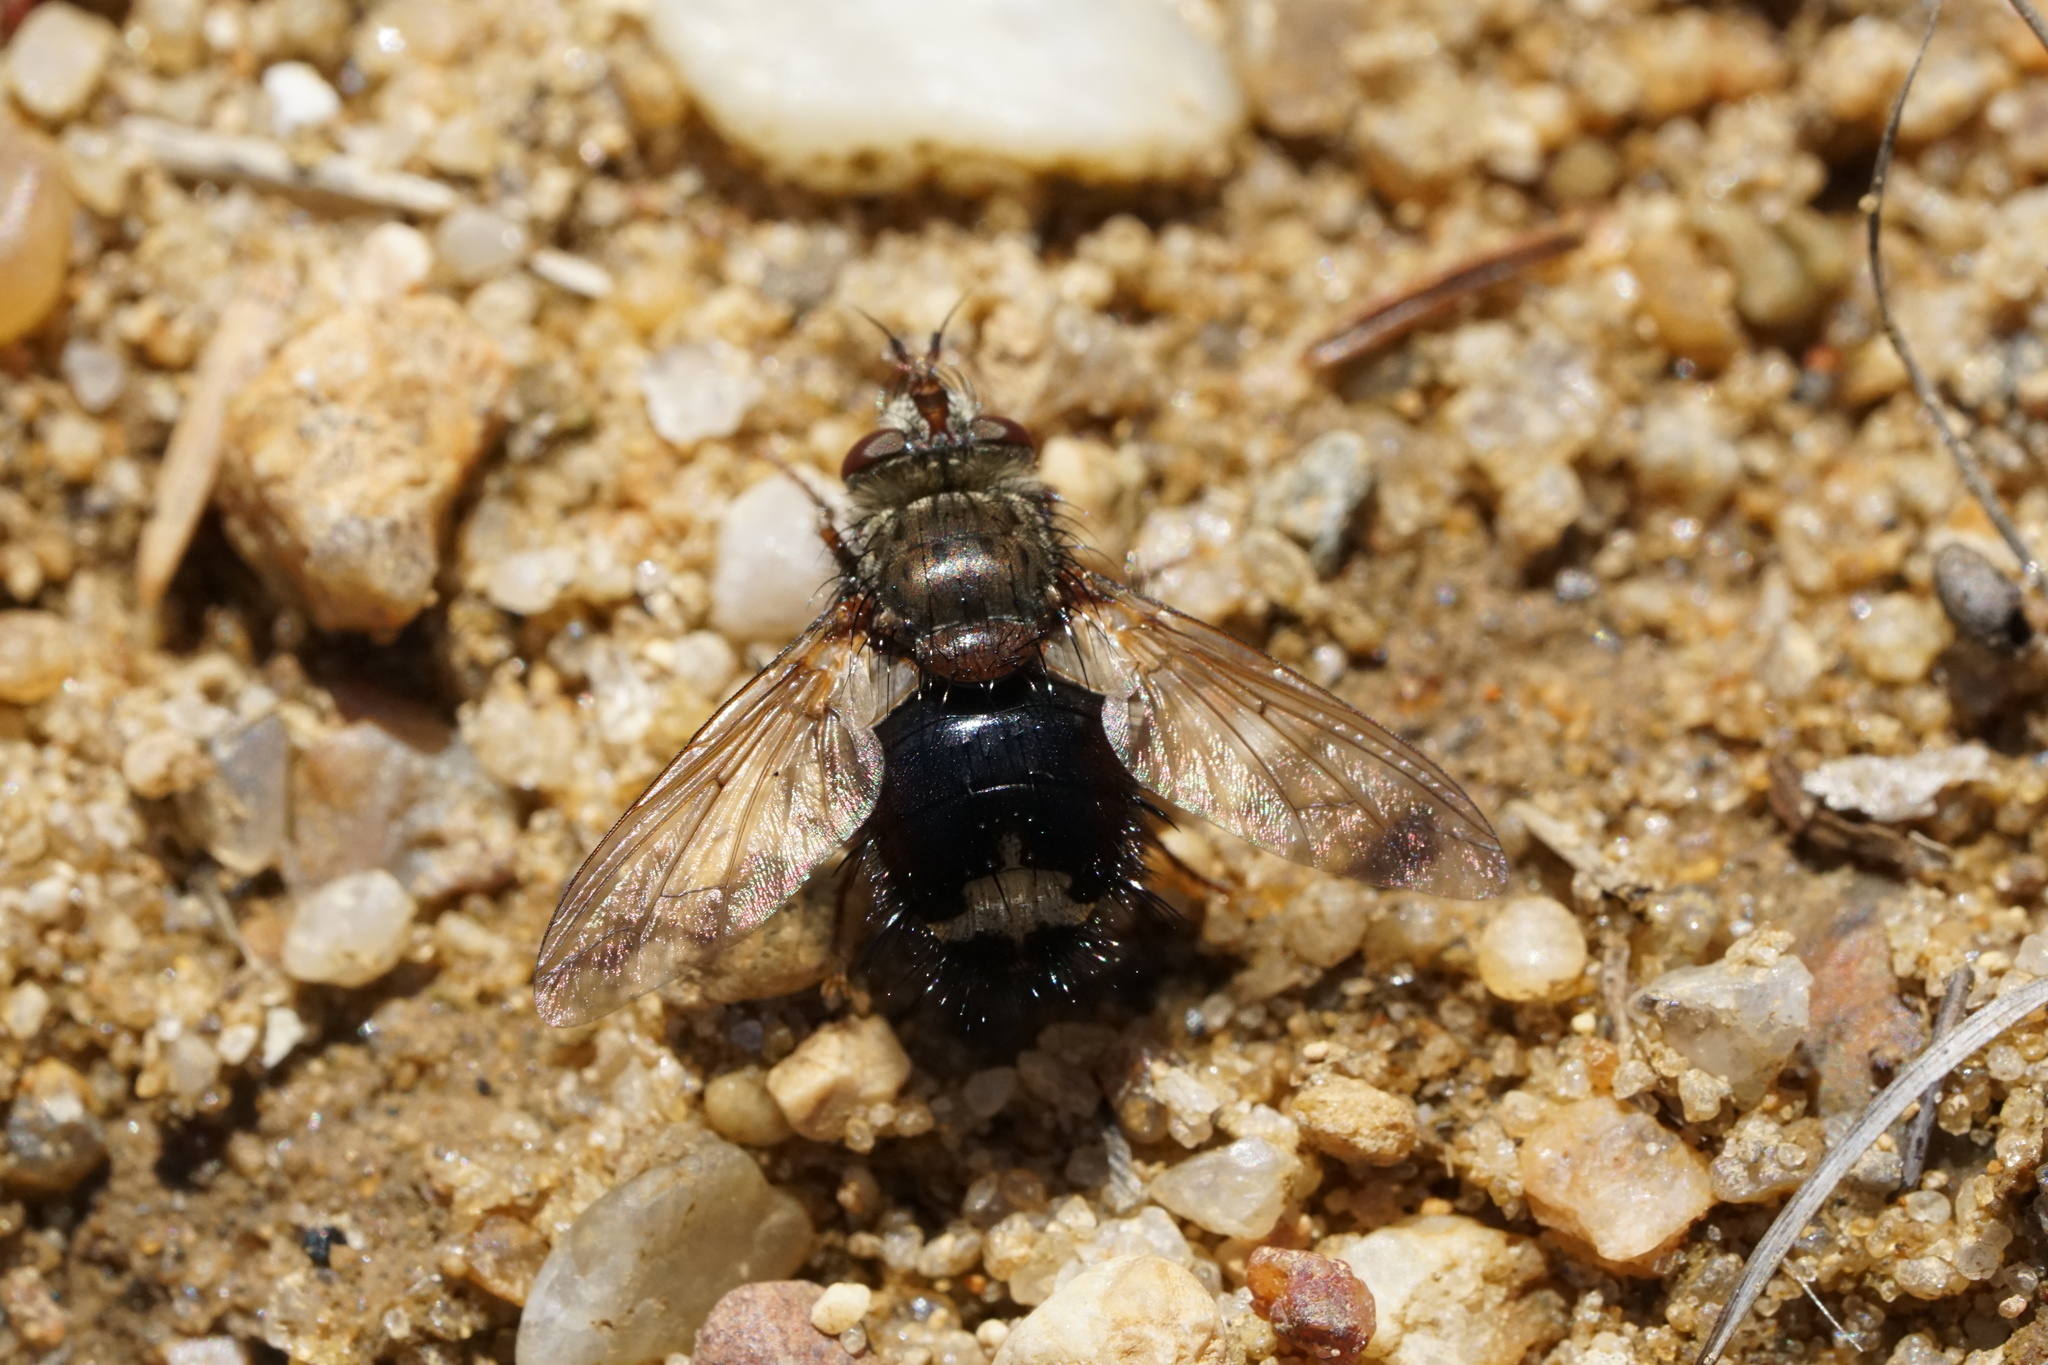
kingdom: Animalia
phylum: Arthropoda
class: Insecta
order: Diptera
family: Tachinidae
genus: Epalpus
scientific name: Epalpus signifer
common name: Early tachinid fly
